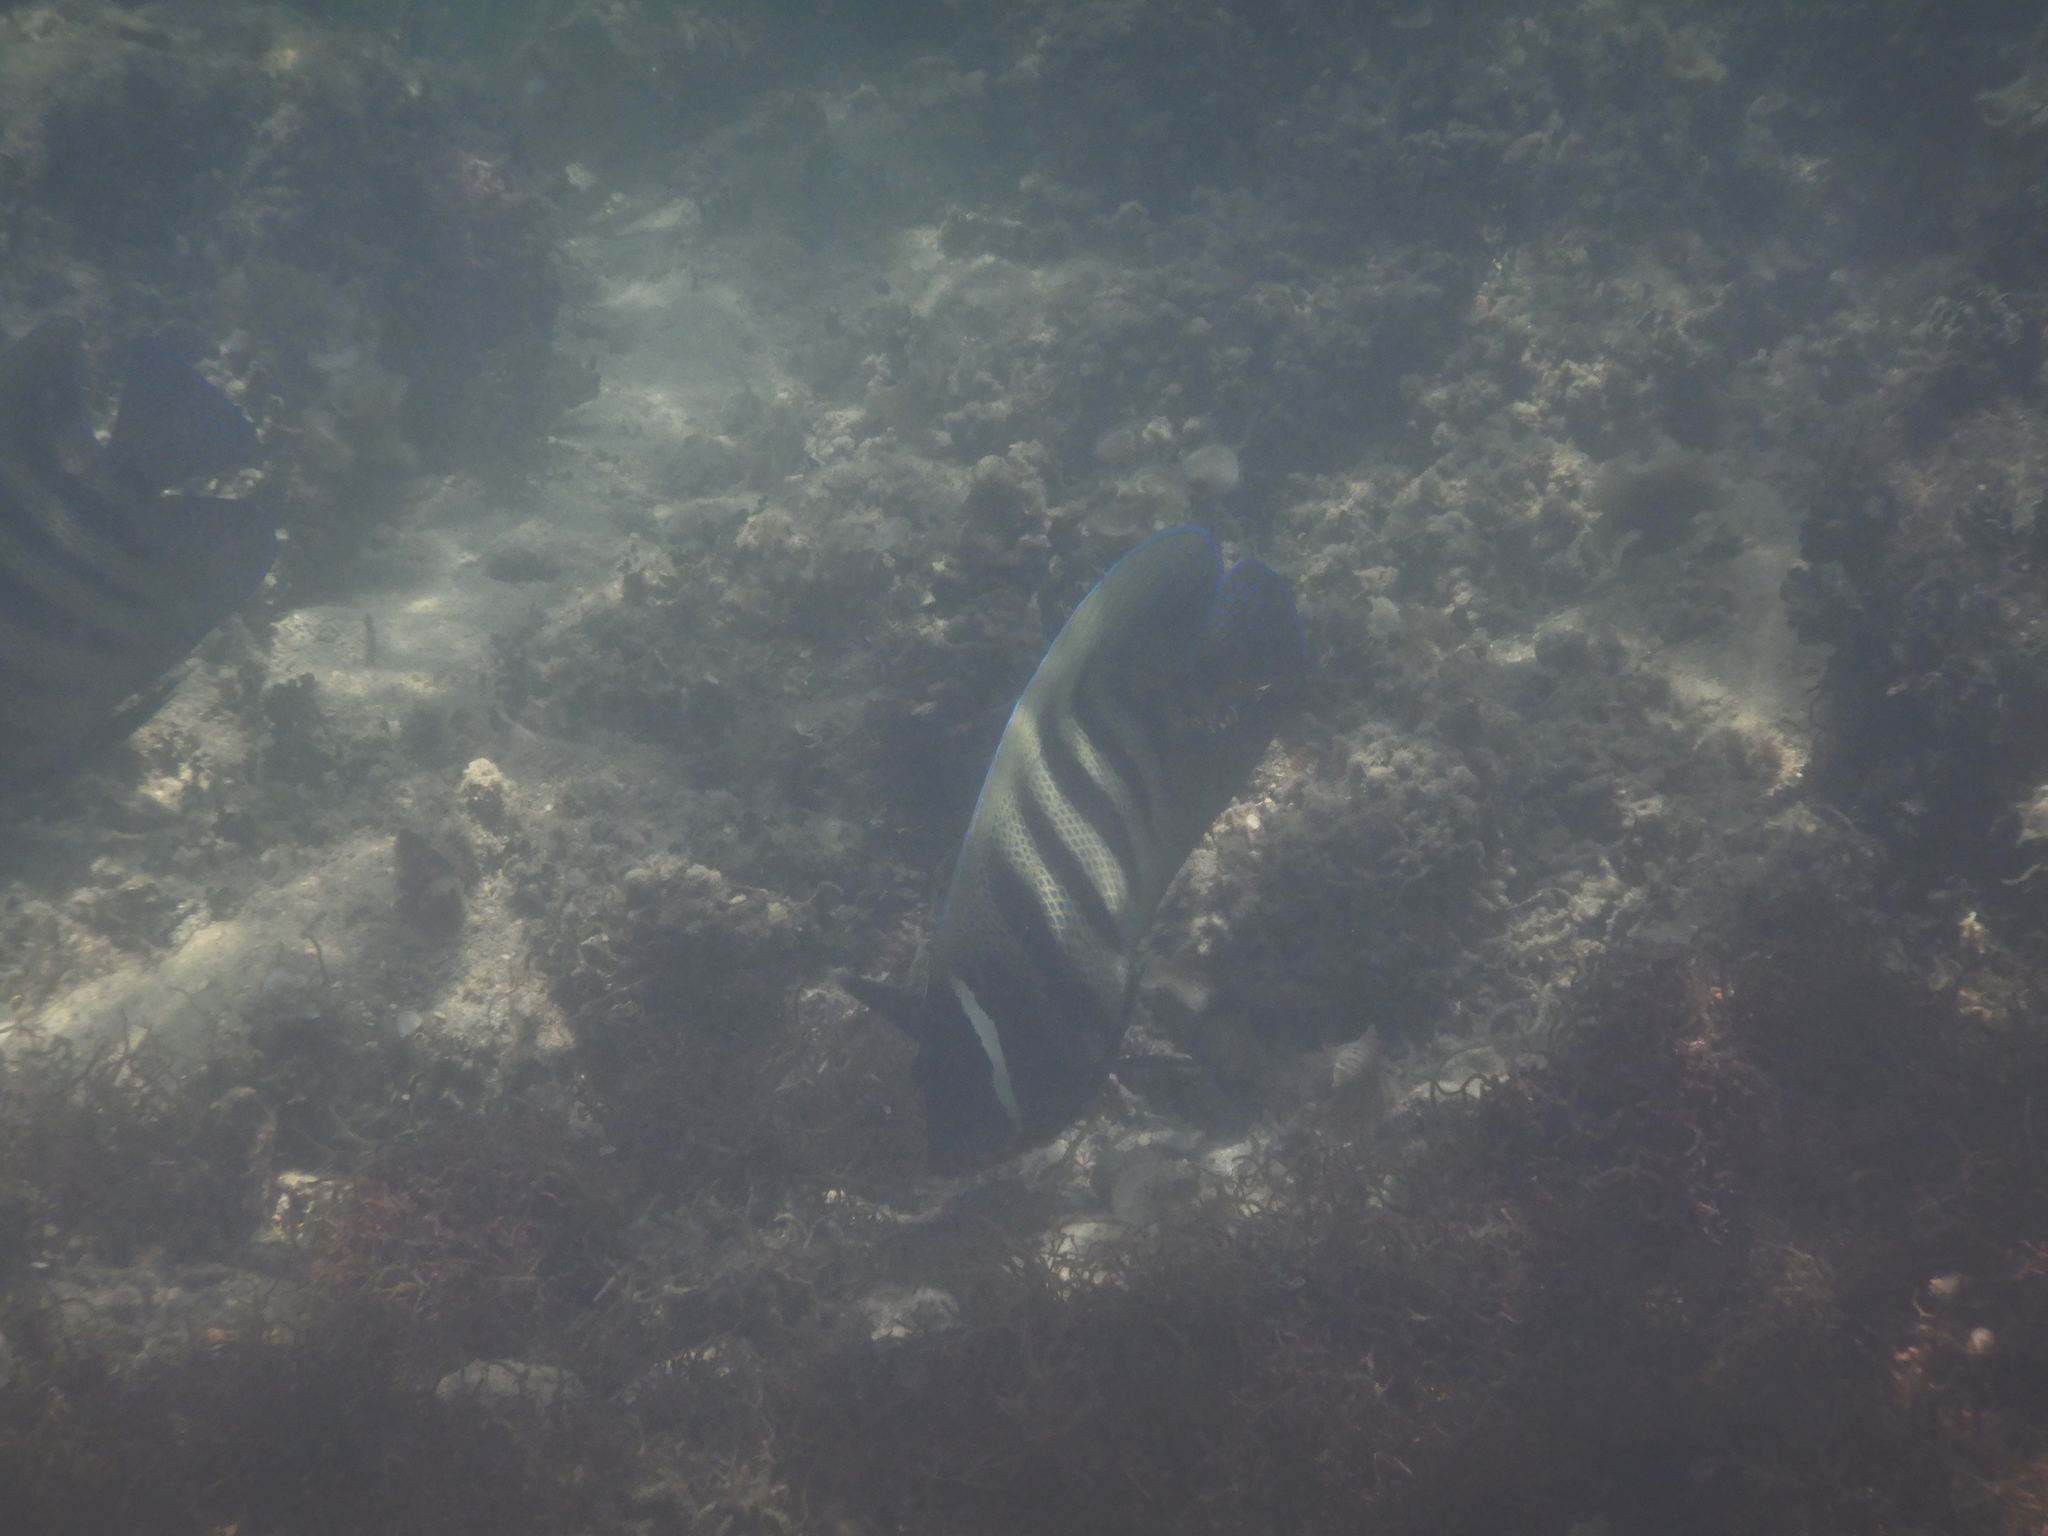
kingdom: Animalia
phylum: Chordata
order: Perciformes
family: Pomacanthidae
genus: Pomacanthus
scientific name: Pomacanthus sexstriatus
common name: Six-banded angelfish
